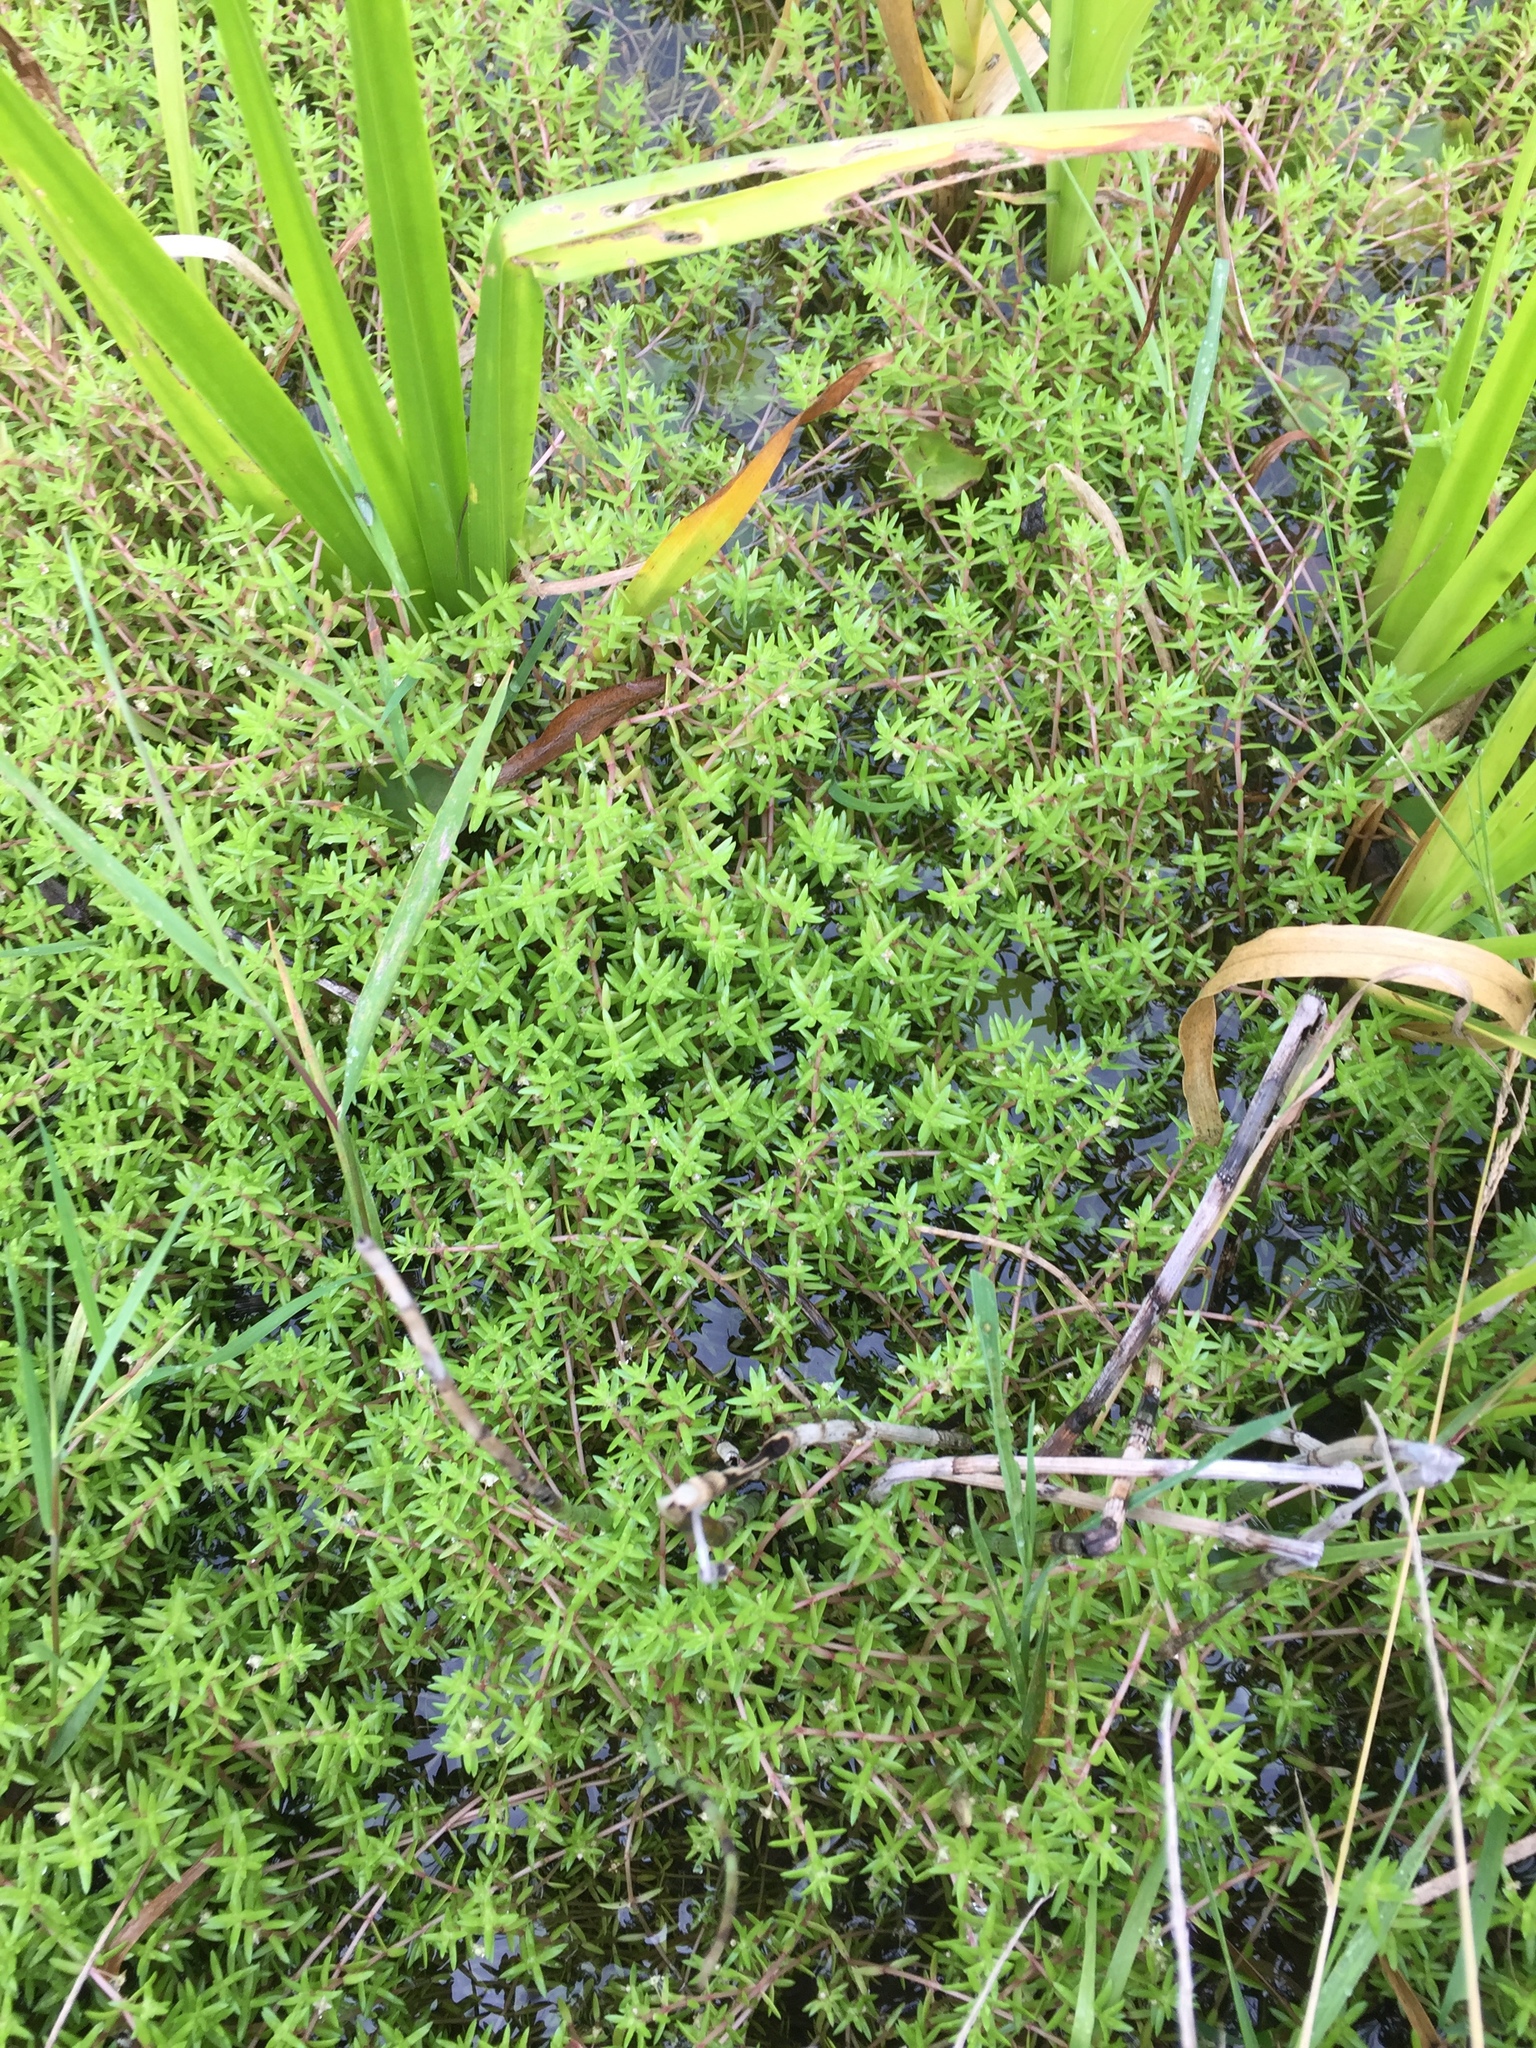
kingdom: Plantae
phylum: Tracheophyta
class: Magnoliopsida
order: Saxifragales
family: Crassulaceae
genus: Crassula
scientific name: Crassula helmsii
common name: New zealand pigmyweed
